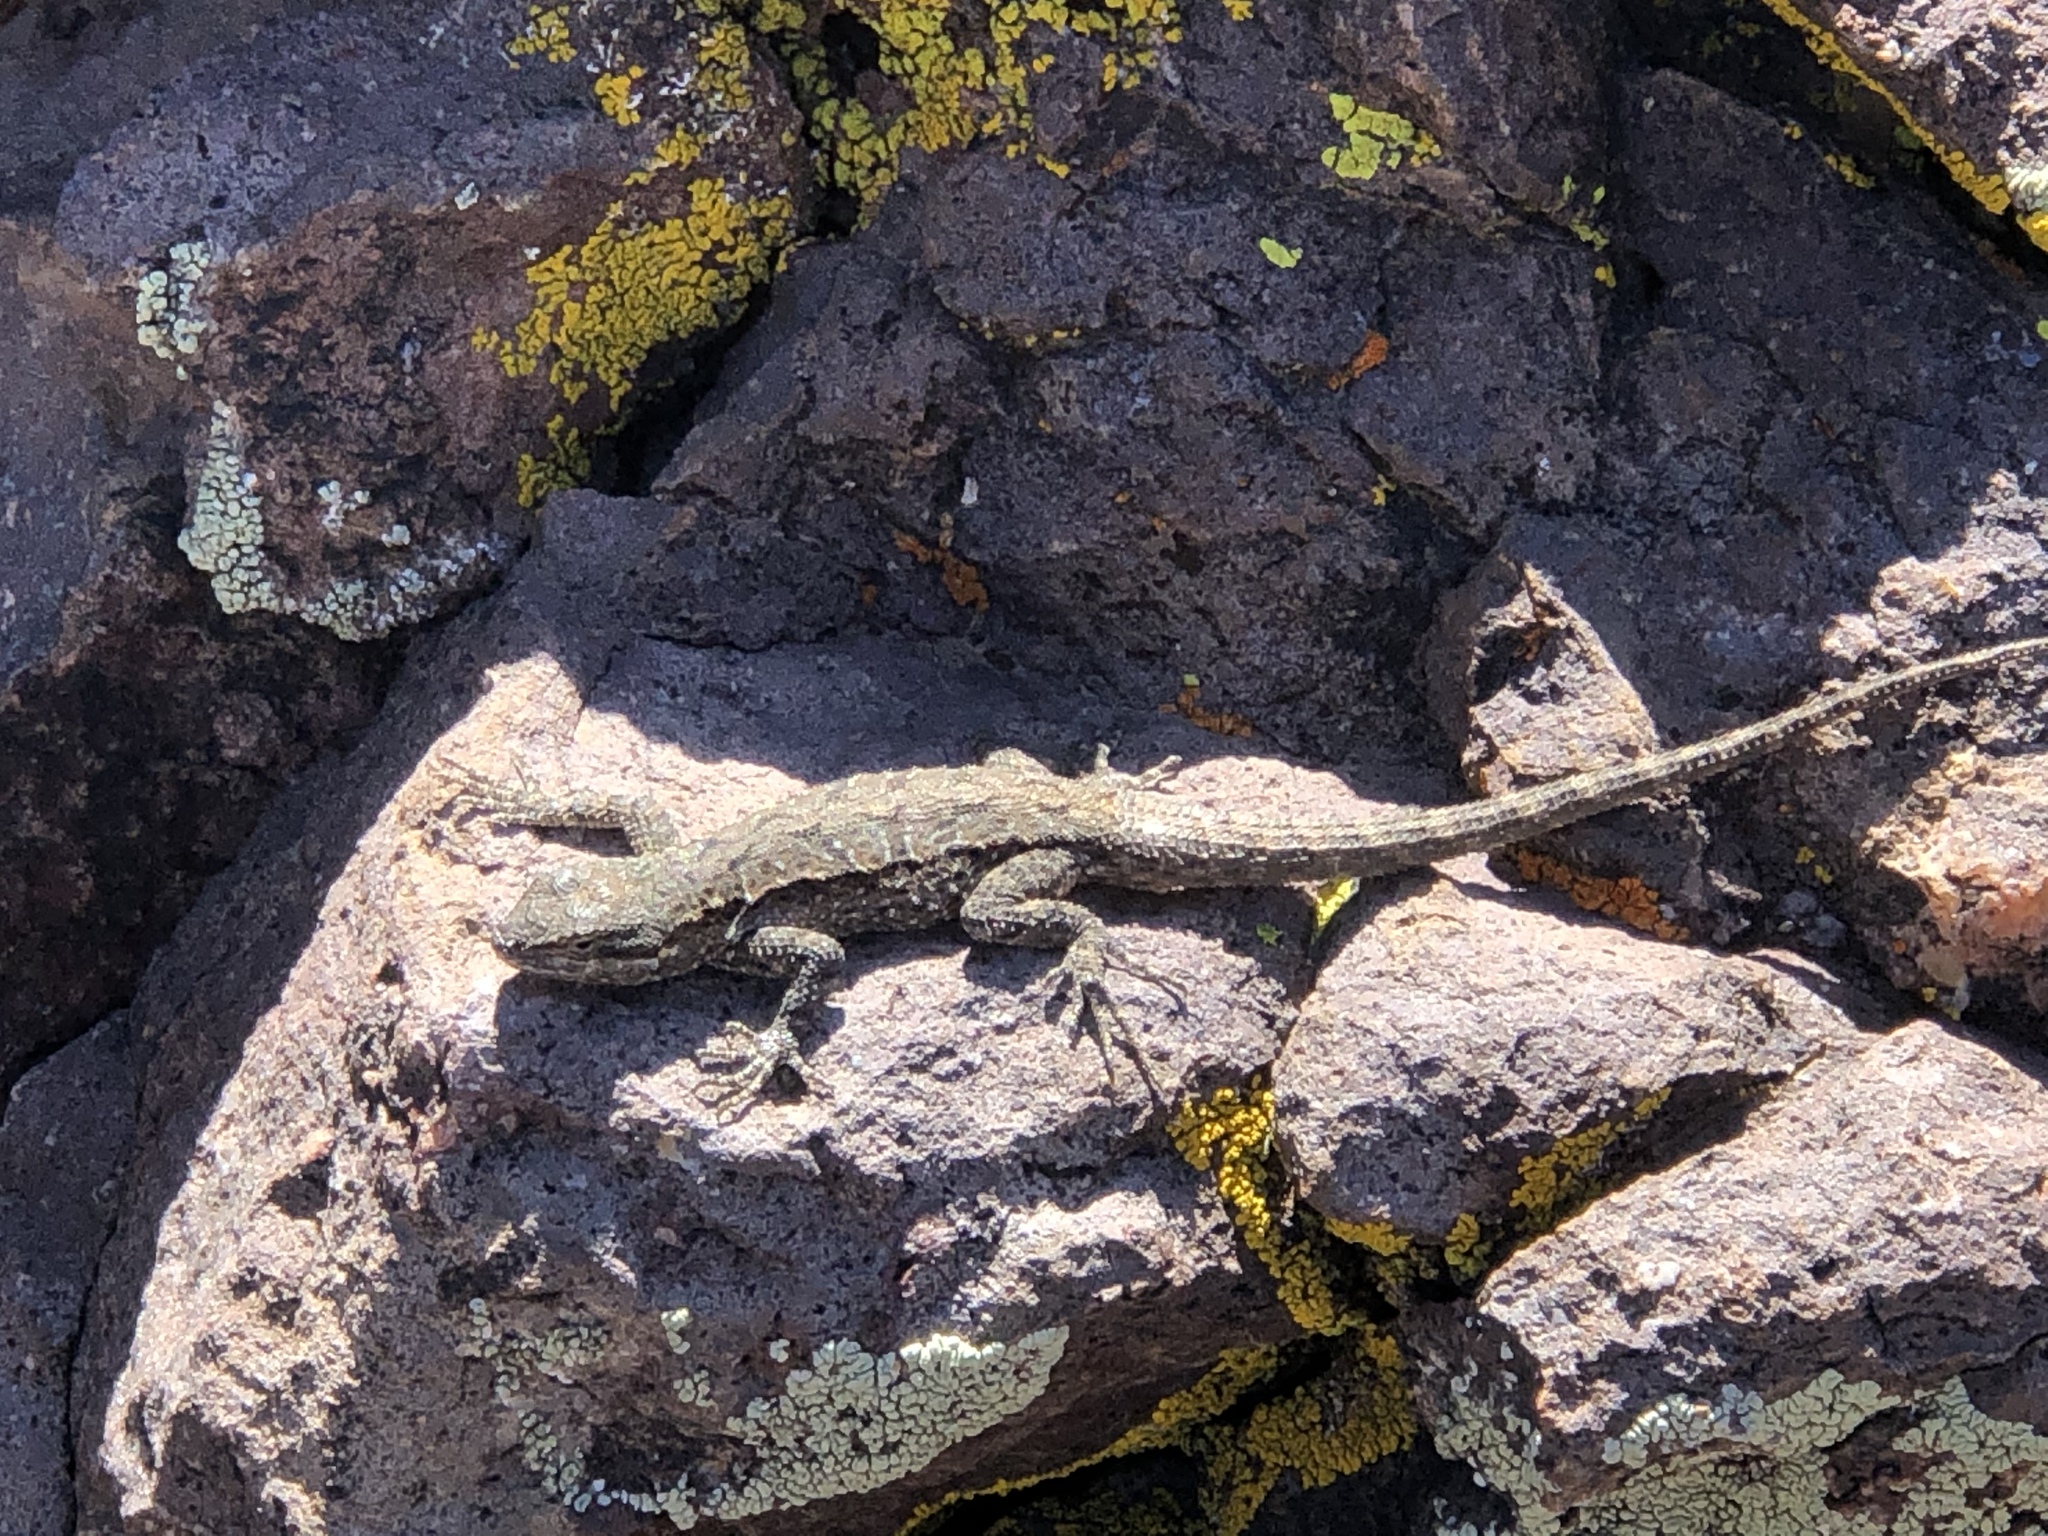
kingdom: Animalia
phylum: Chordata
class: Squamata
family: Phrynosomatidae
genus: Urosaurus
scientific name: Urosaurus ornatus
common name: Ornate tree lizard
